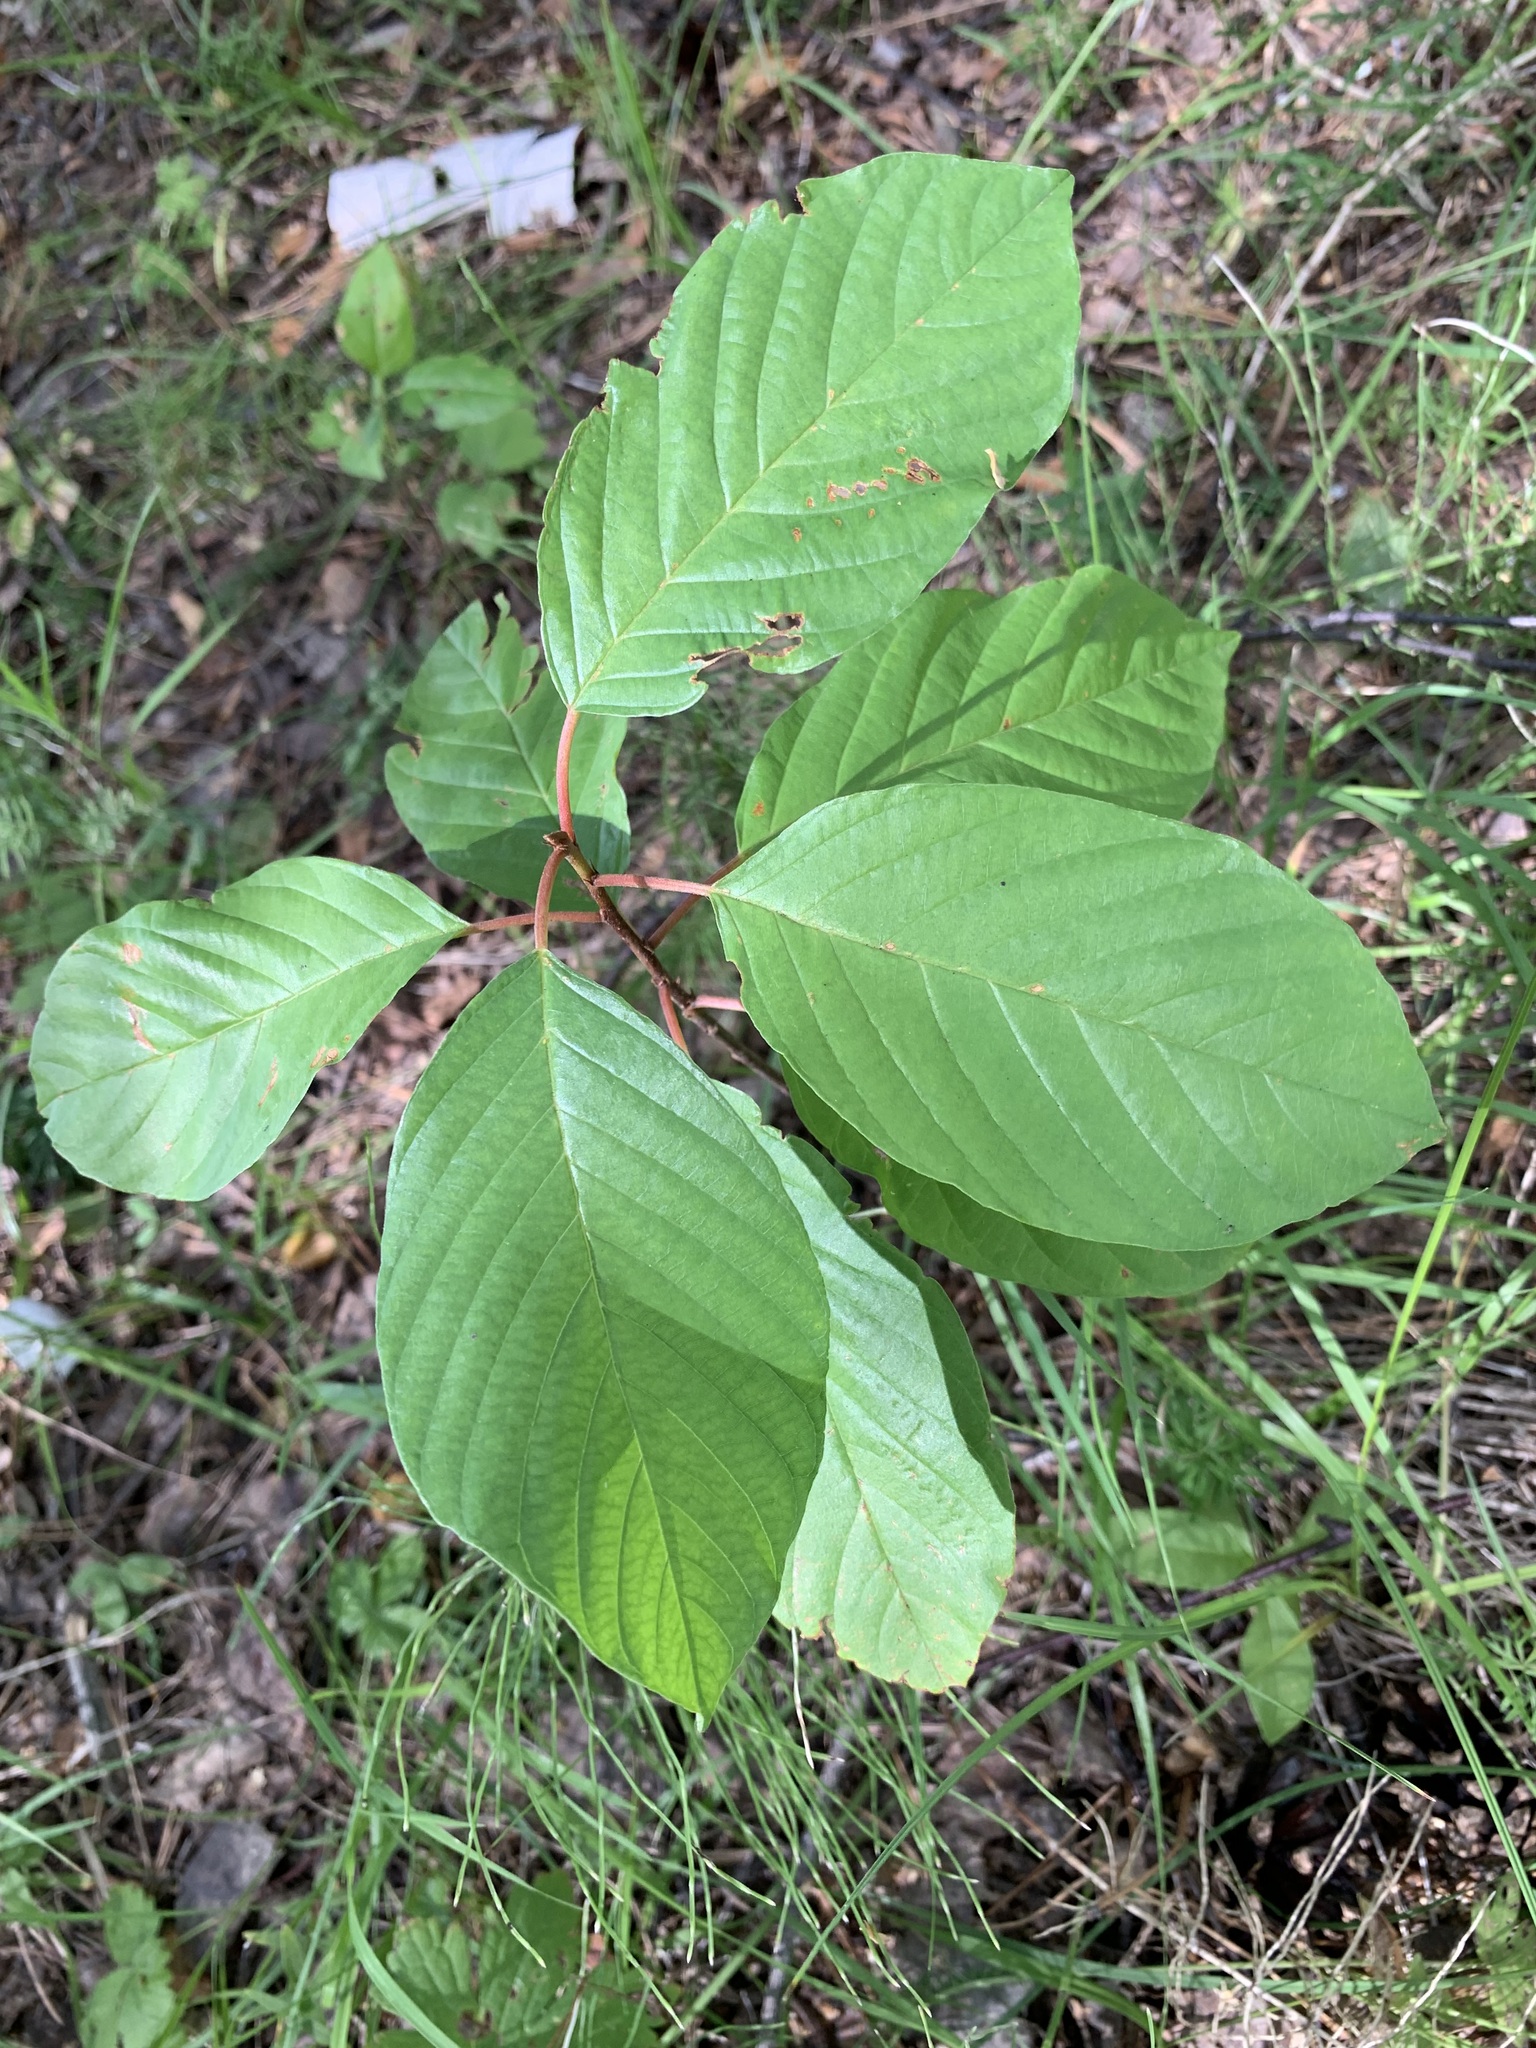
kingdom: Plantae
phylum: Tracheophyta
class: Magnoliopsida
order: Rosales
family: Rhamnaceae
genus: Frangula
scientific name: Frangula alnus
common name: Alder buckthorn
